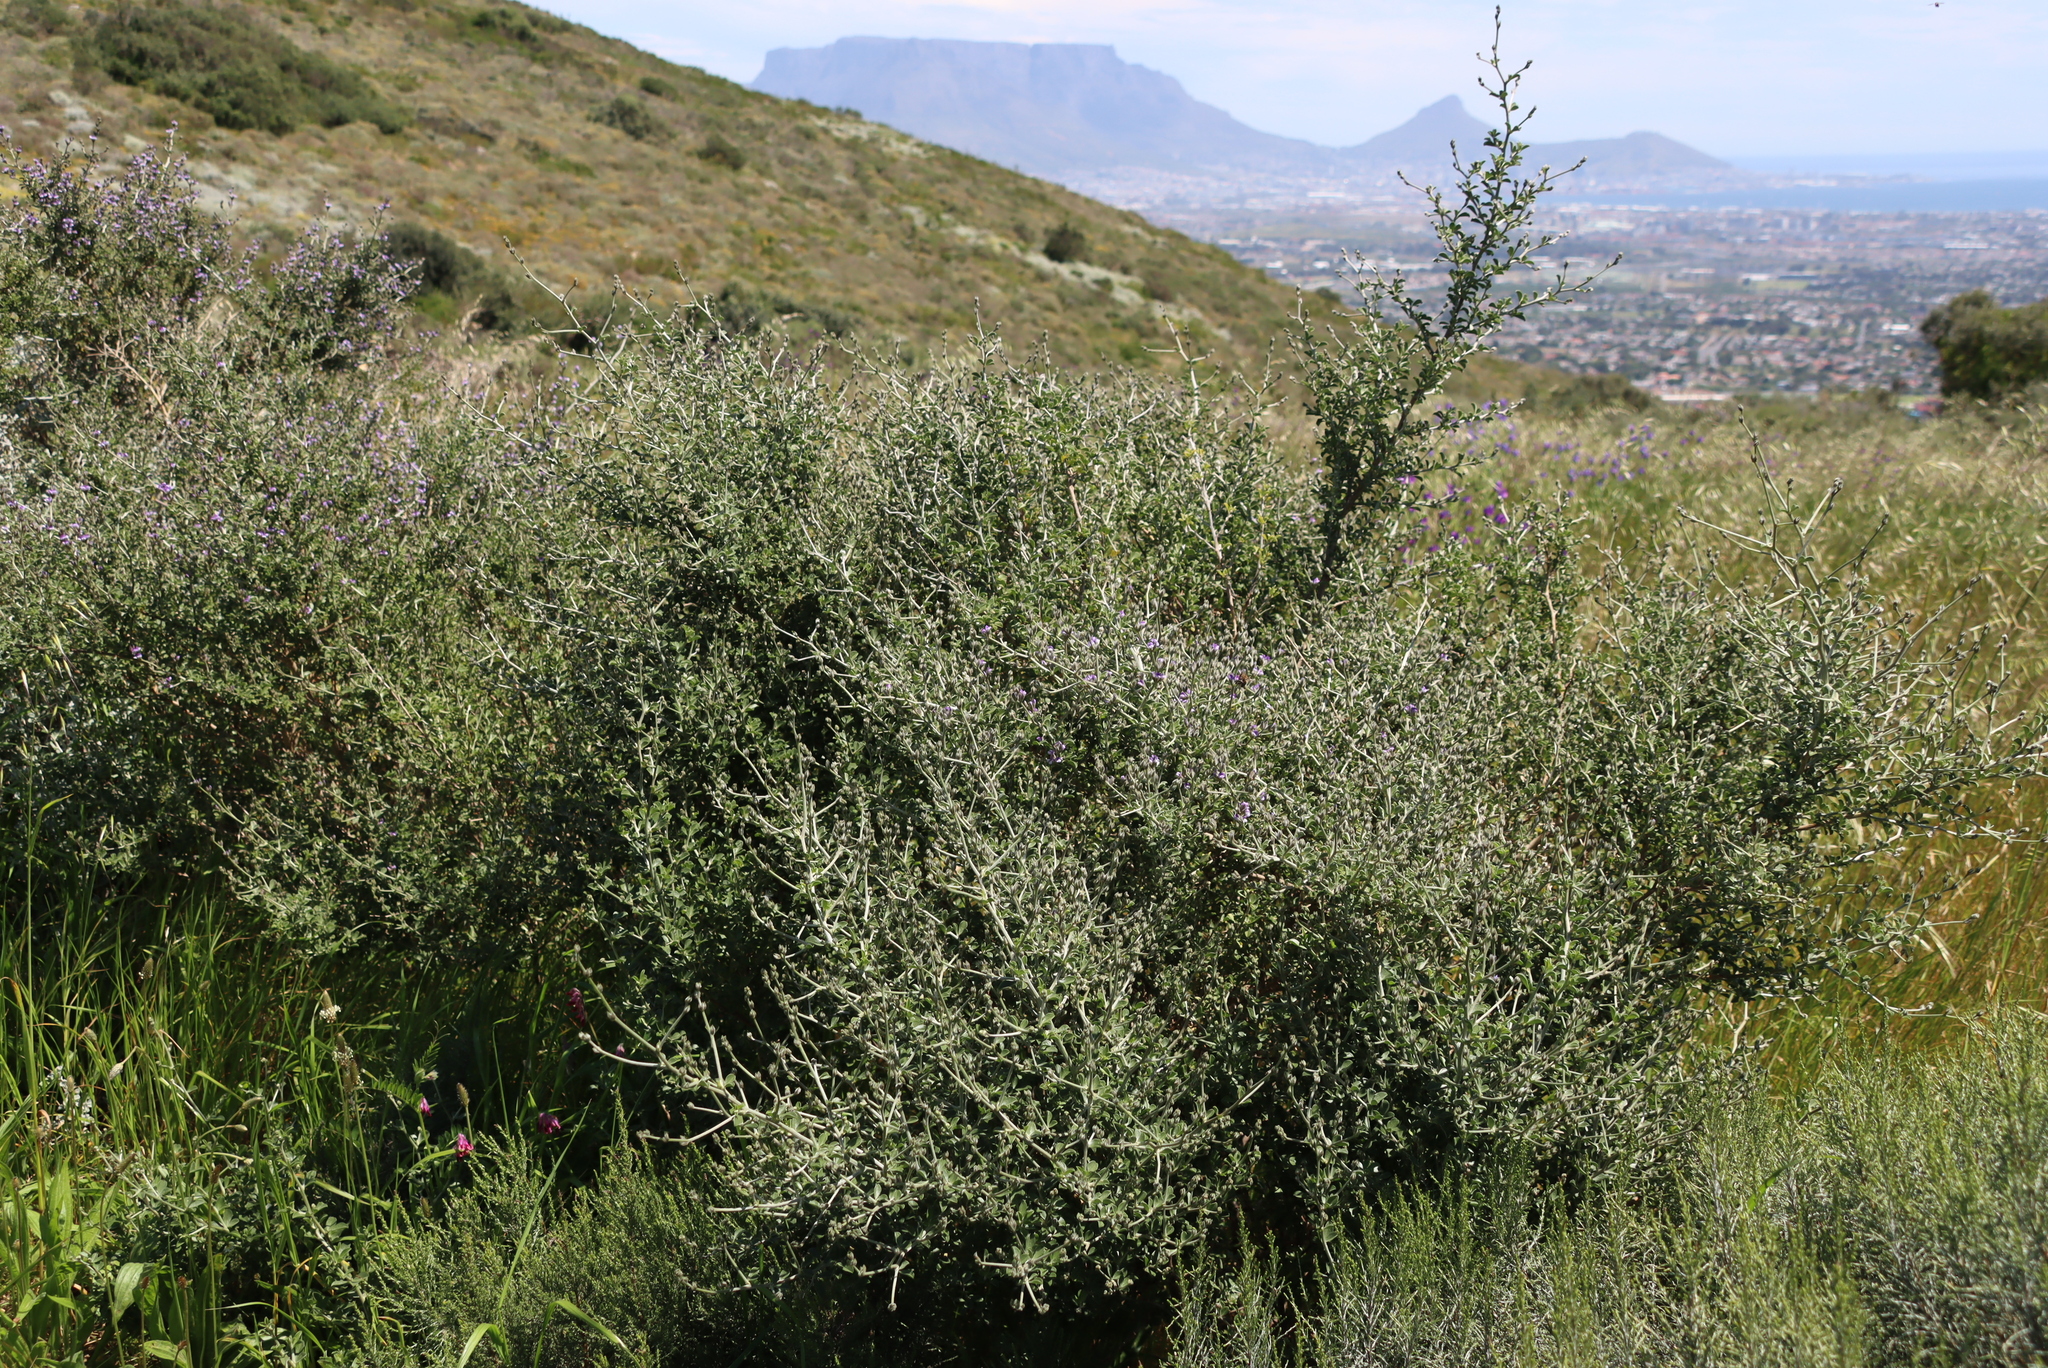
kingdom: Plantae
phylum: Tracheophyta
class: Magnoliopsida
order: Fabales
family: Fabaceae
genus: Psoralea
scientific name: Psoralea hirta
